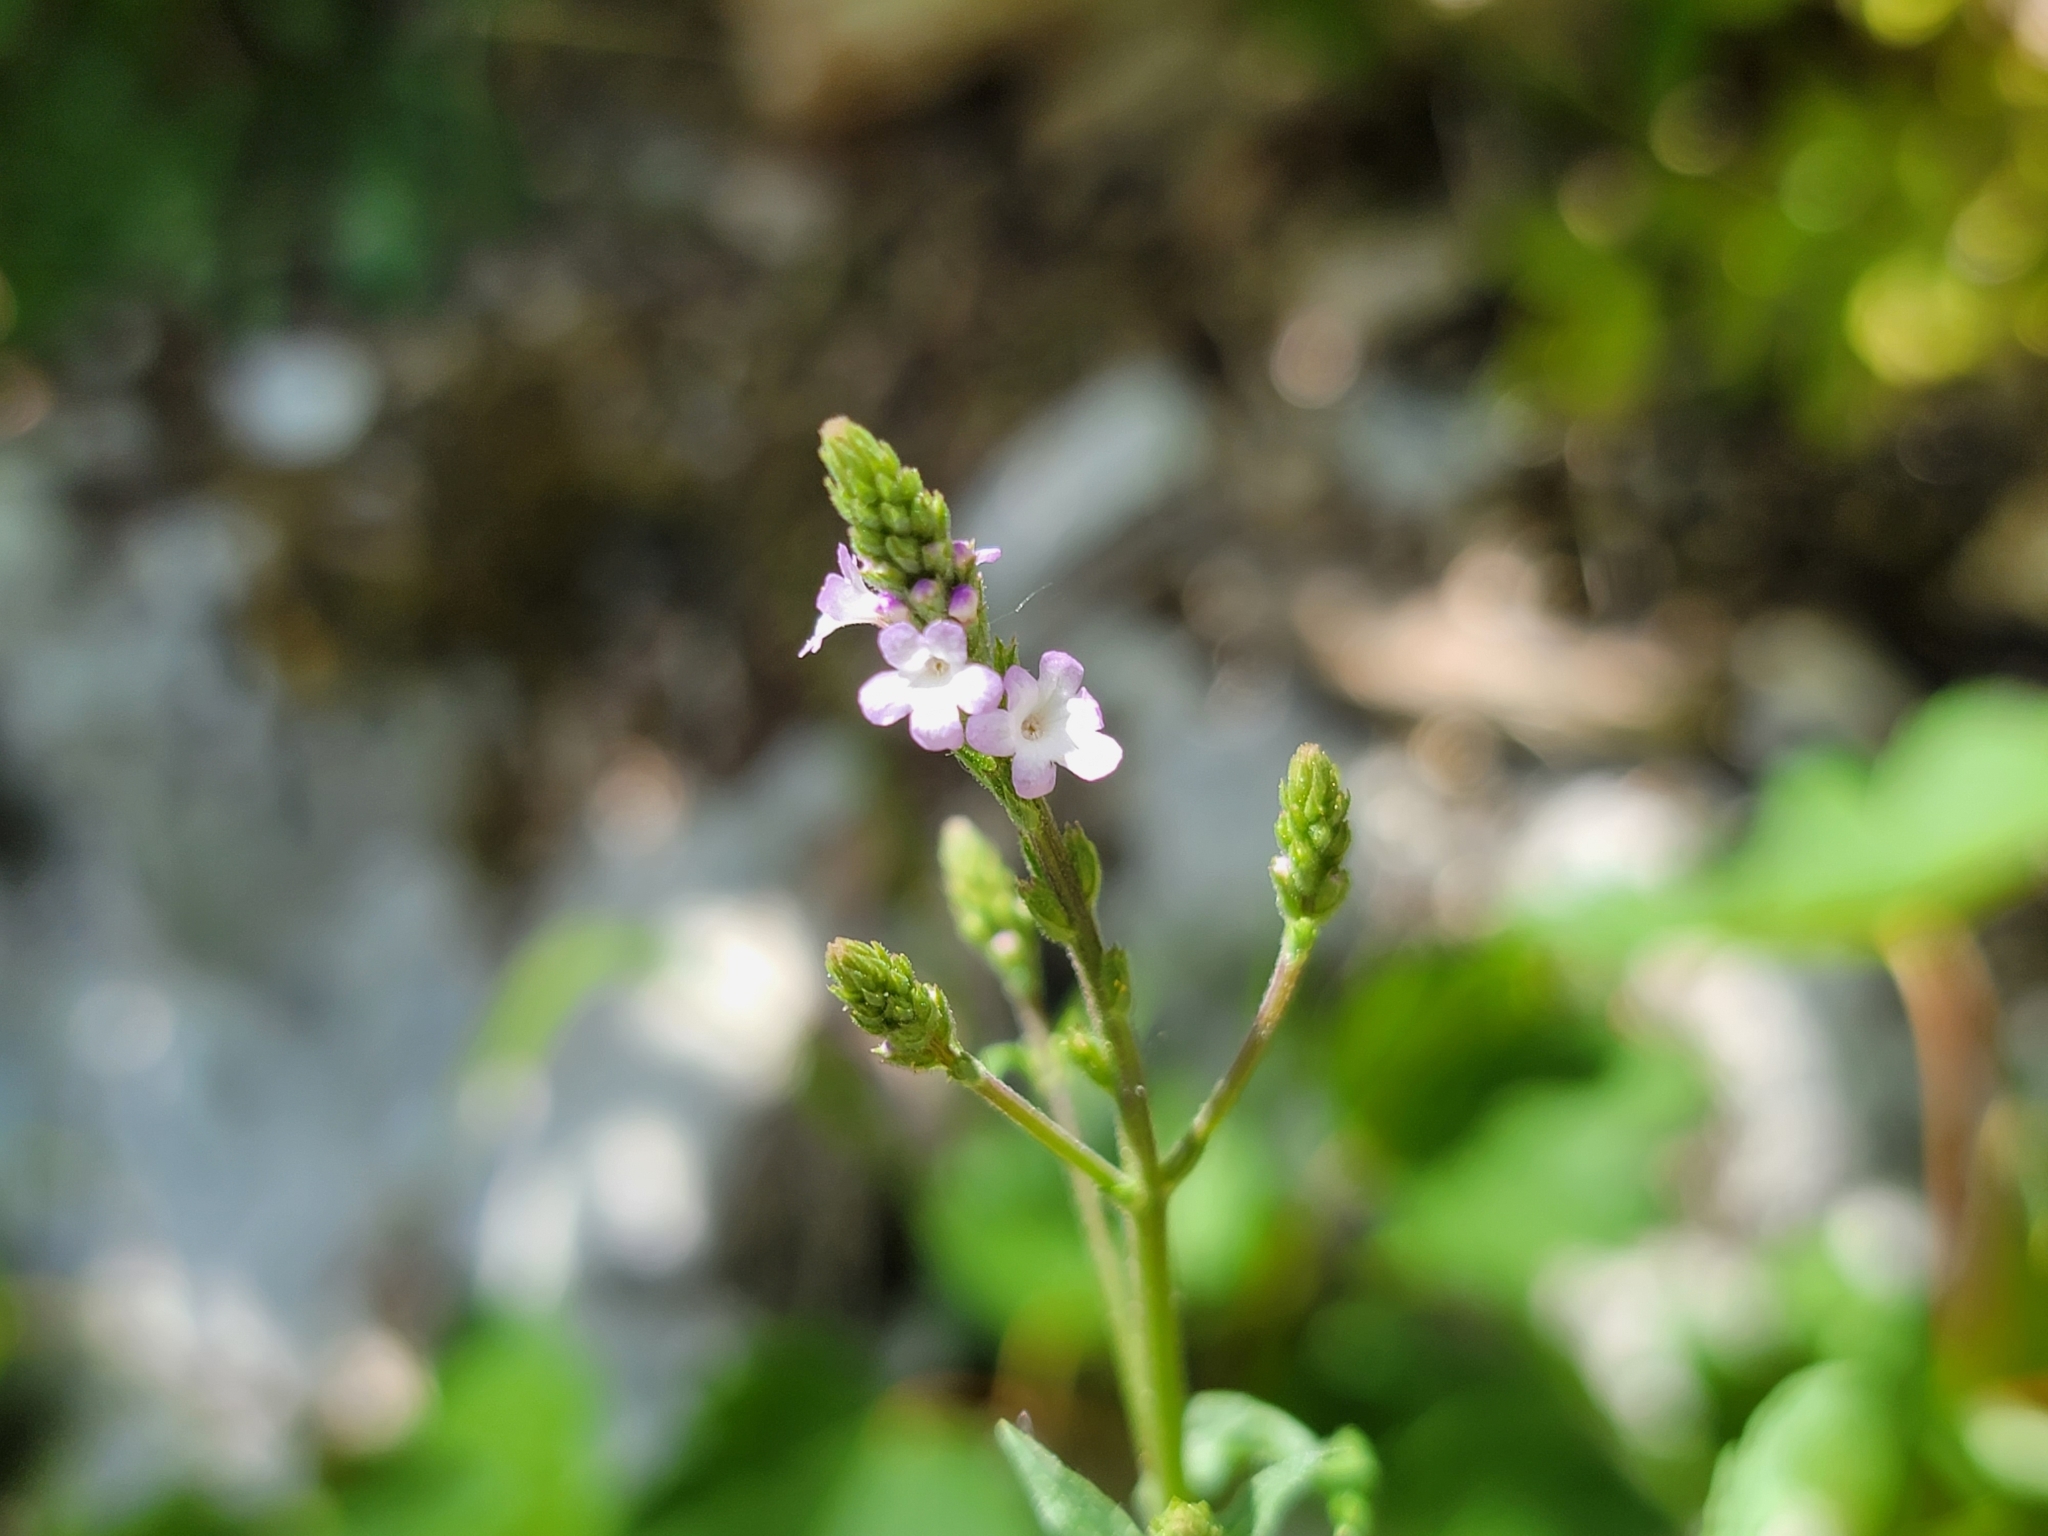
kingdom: Plantae
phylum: Tracheophyta
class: Magnoliopsida
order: Lamiales
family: Verbenaceae
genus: Verbena
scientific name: Verbena officinalis
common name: Vervain
